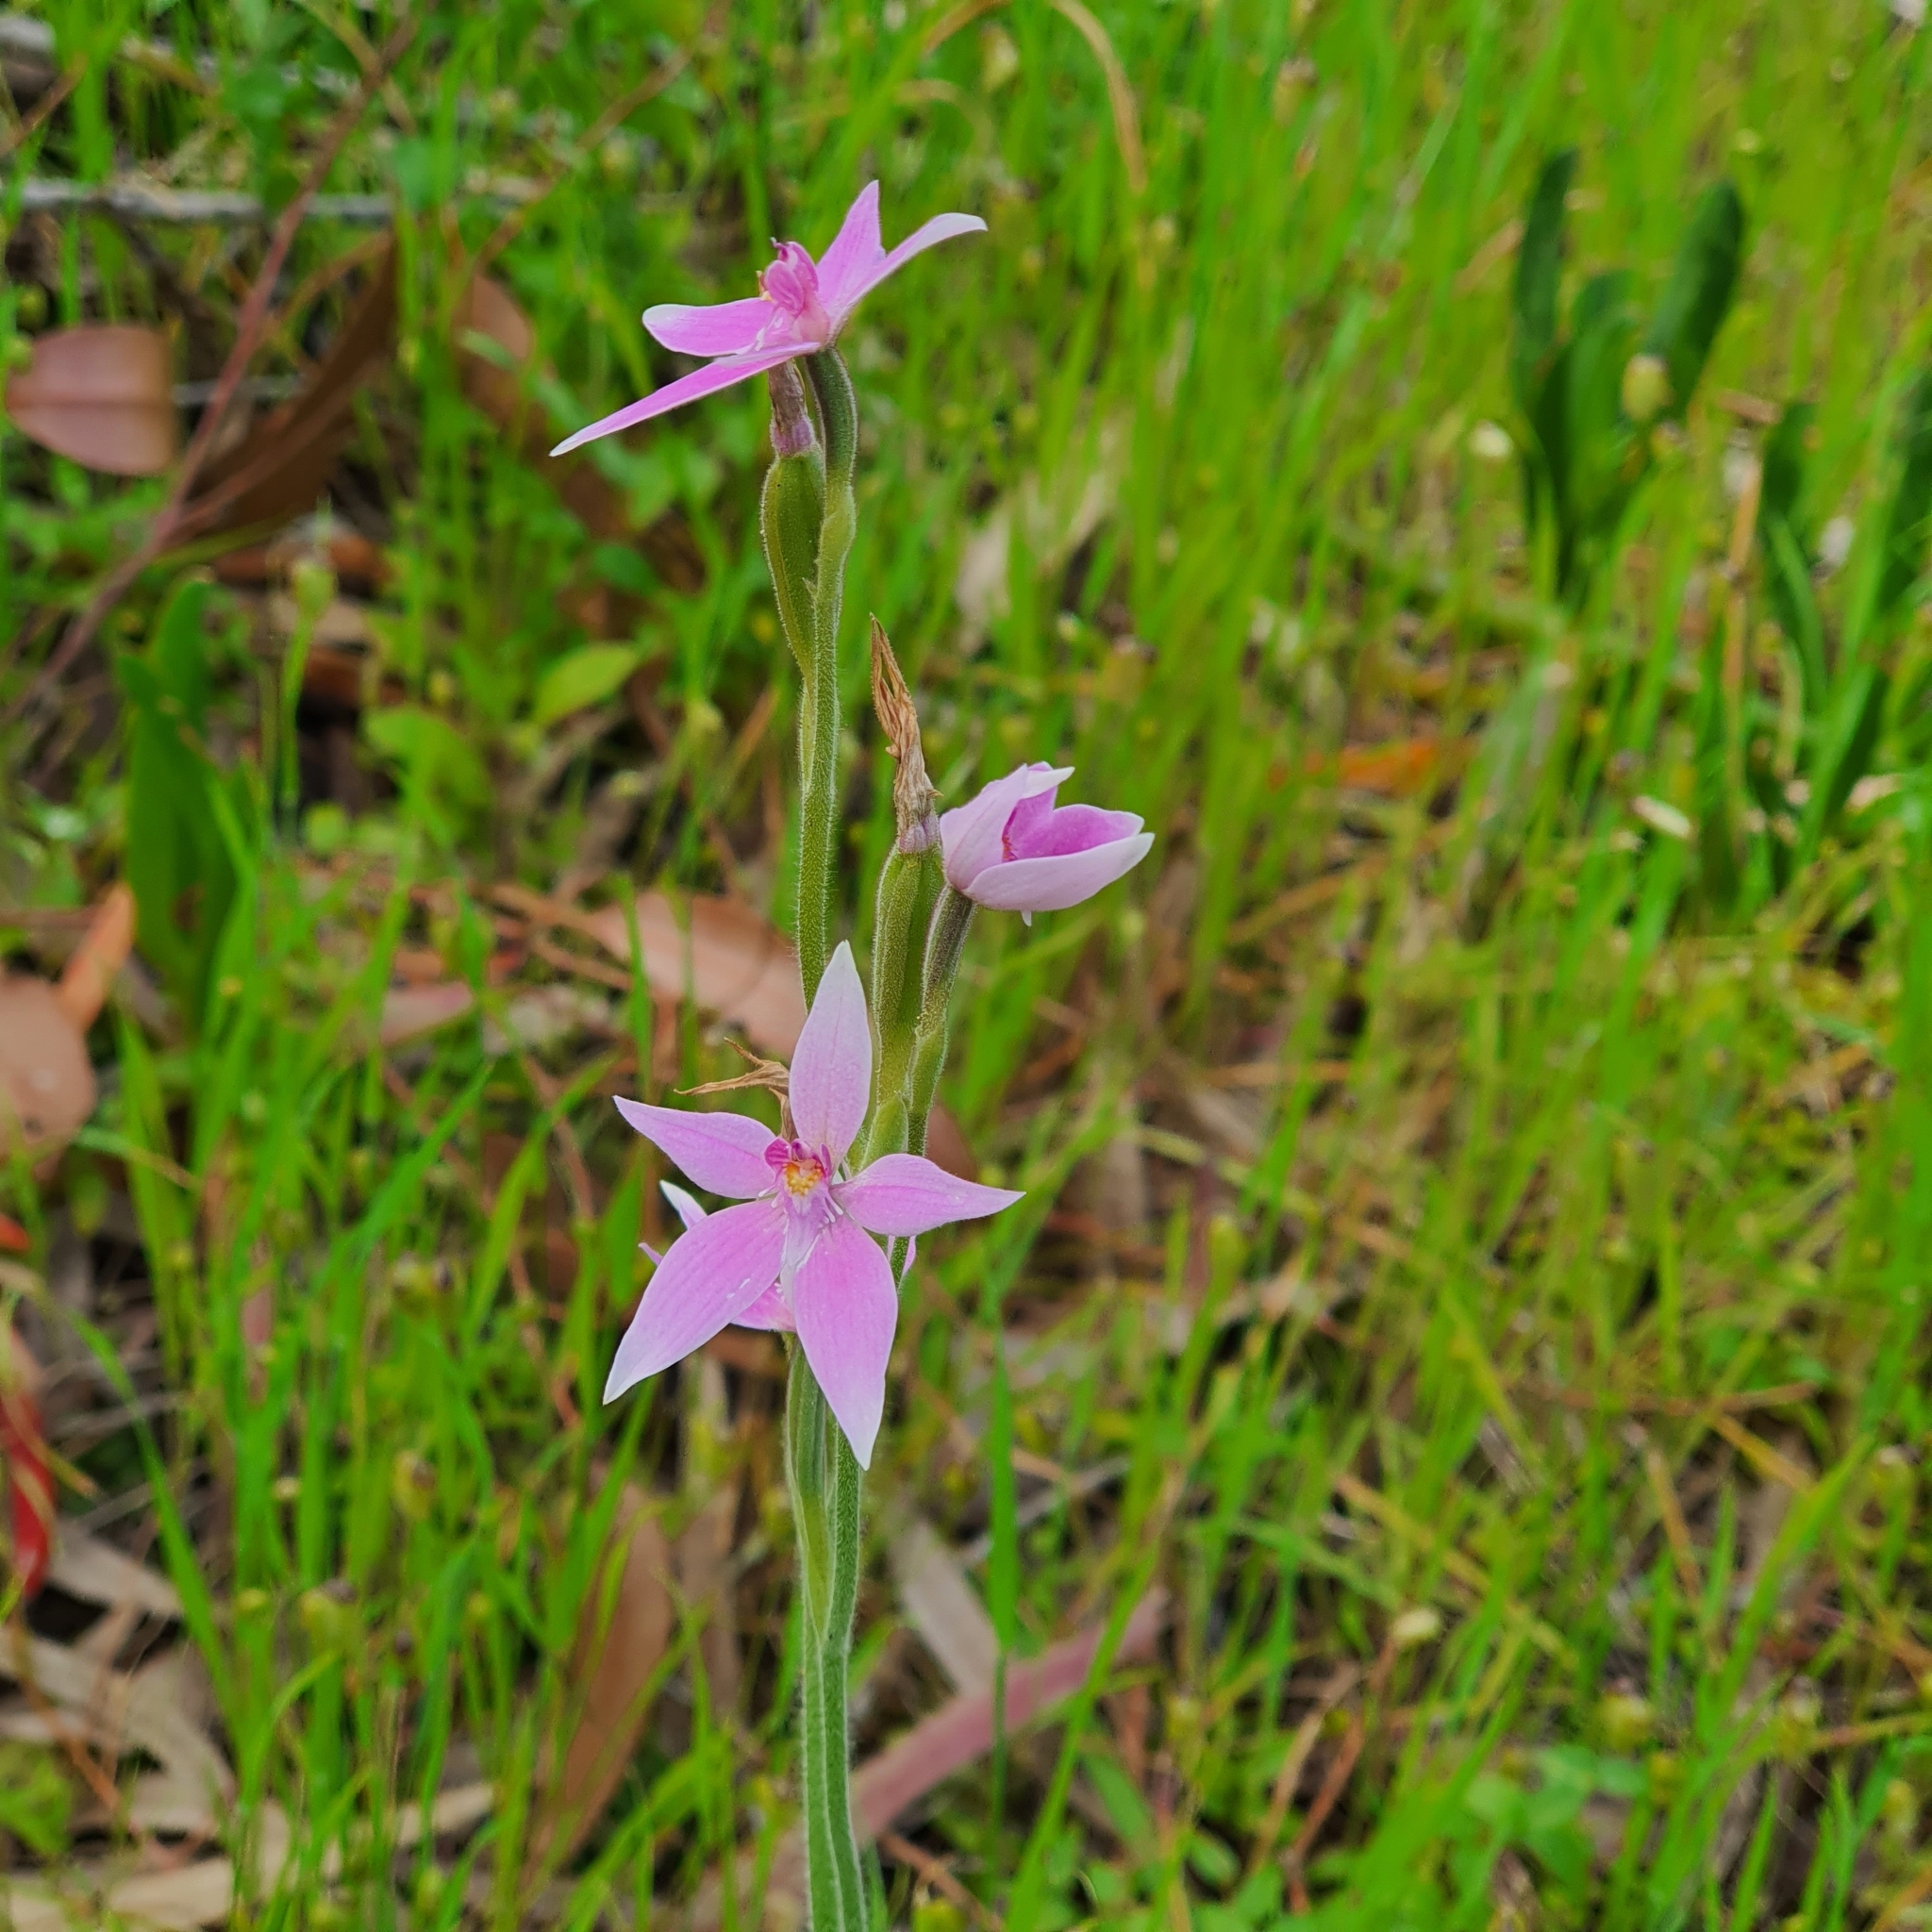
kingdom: Plantae
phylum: Tracheophyta
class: Liliopsida
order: Asparagales
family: Orchidaceae
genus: Caladenia
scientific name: Caladenia latifolia
